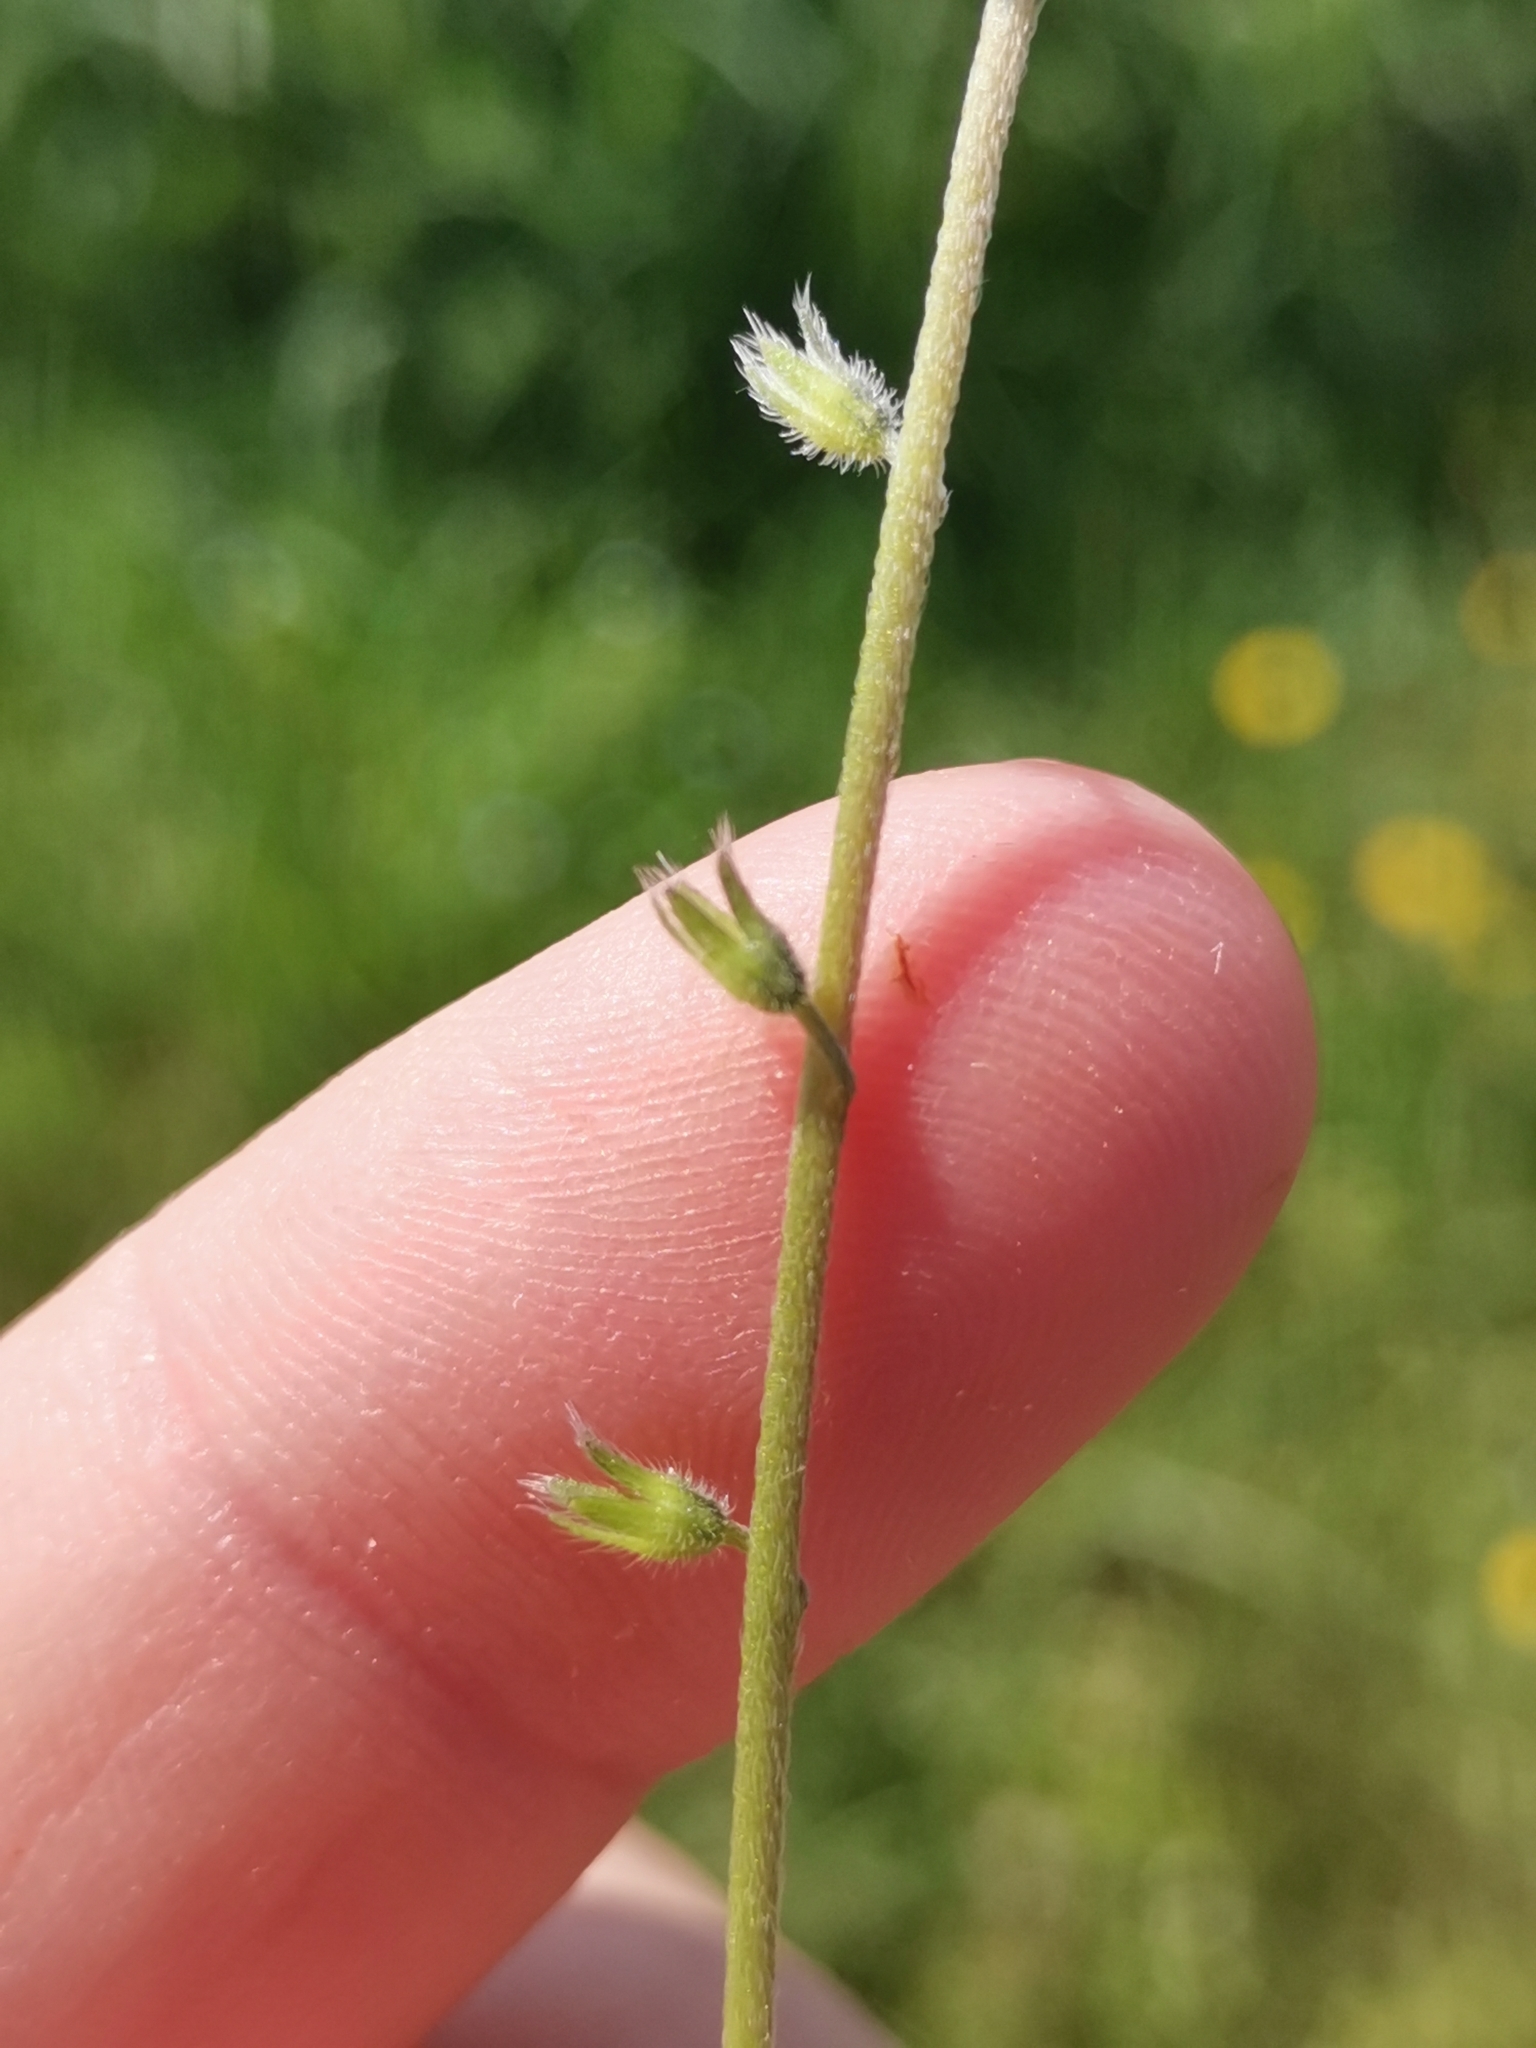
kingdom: Plantae
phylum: Tracheophyta
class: Magnoliopsida
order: Boraginales
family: Boraginaceae
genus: Myosotis
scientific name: Myosotis ramosissima
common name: Early forget-me-not
